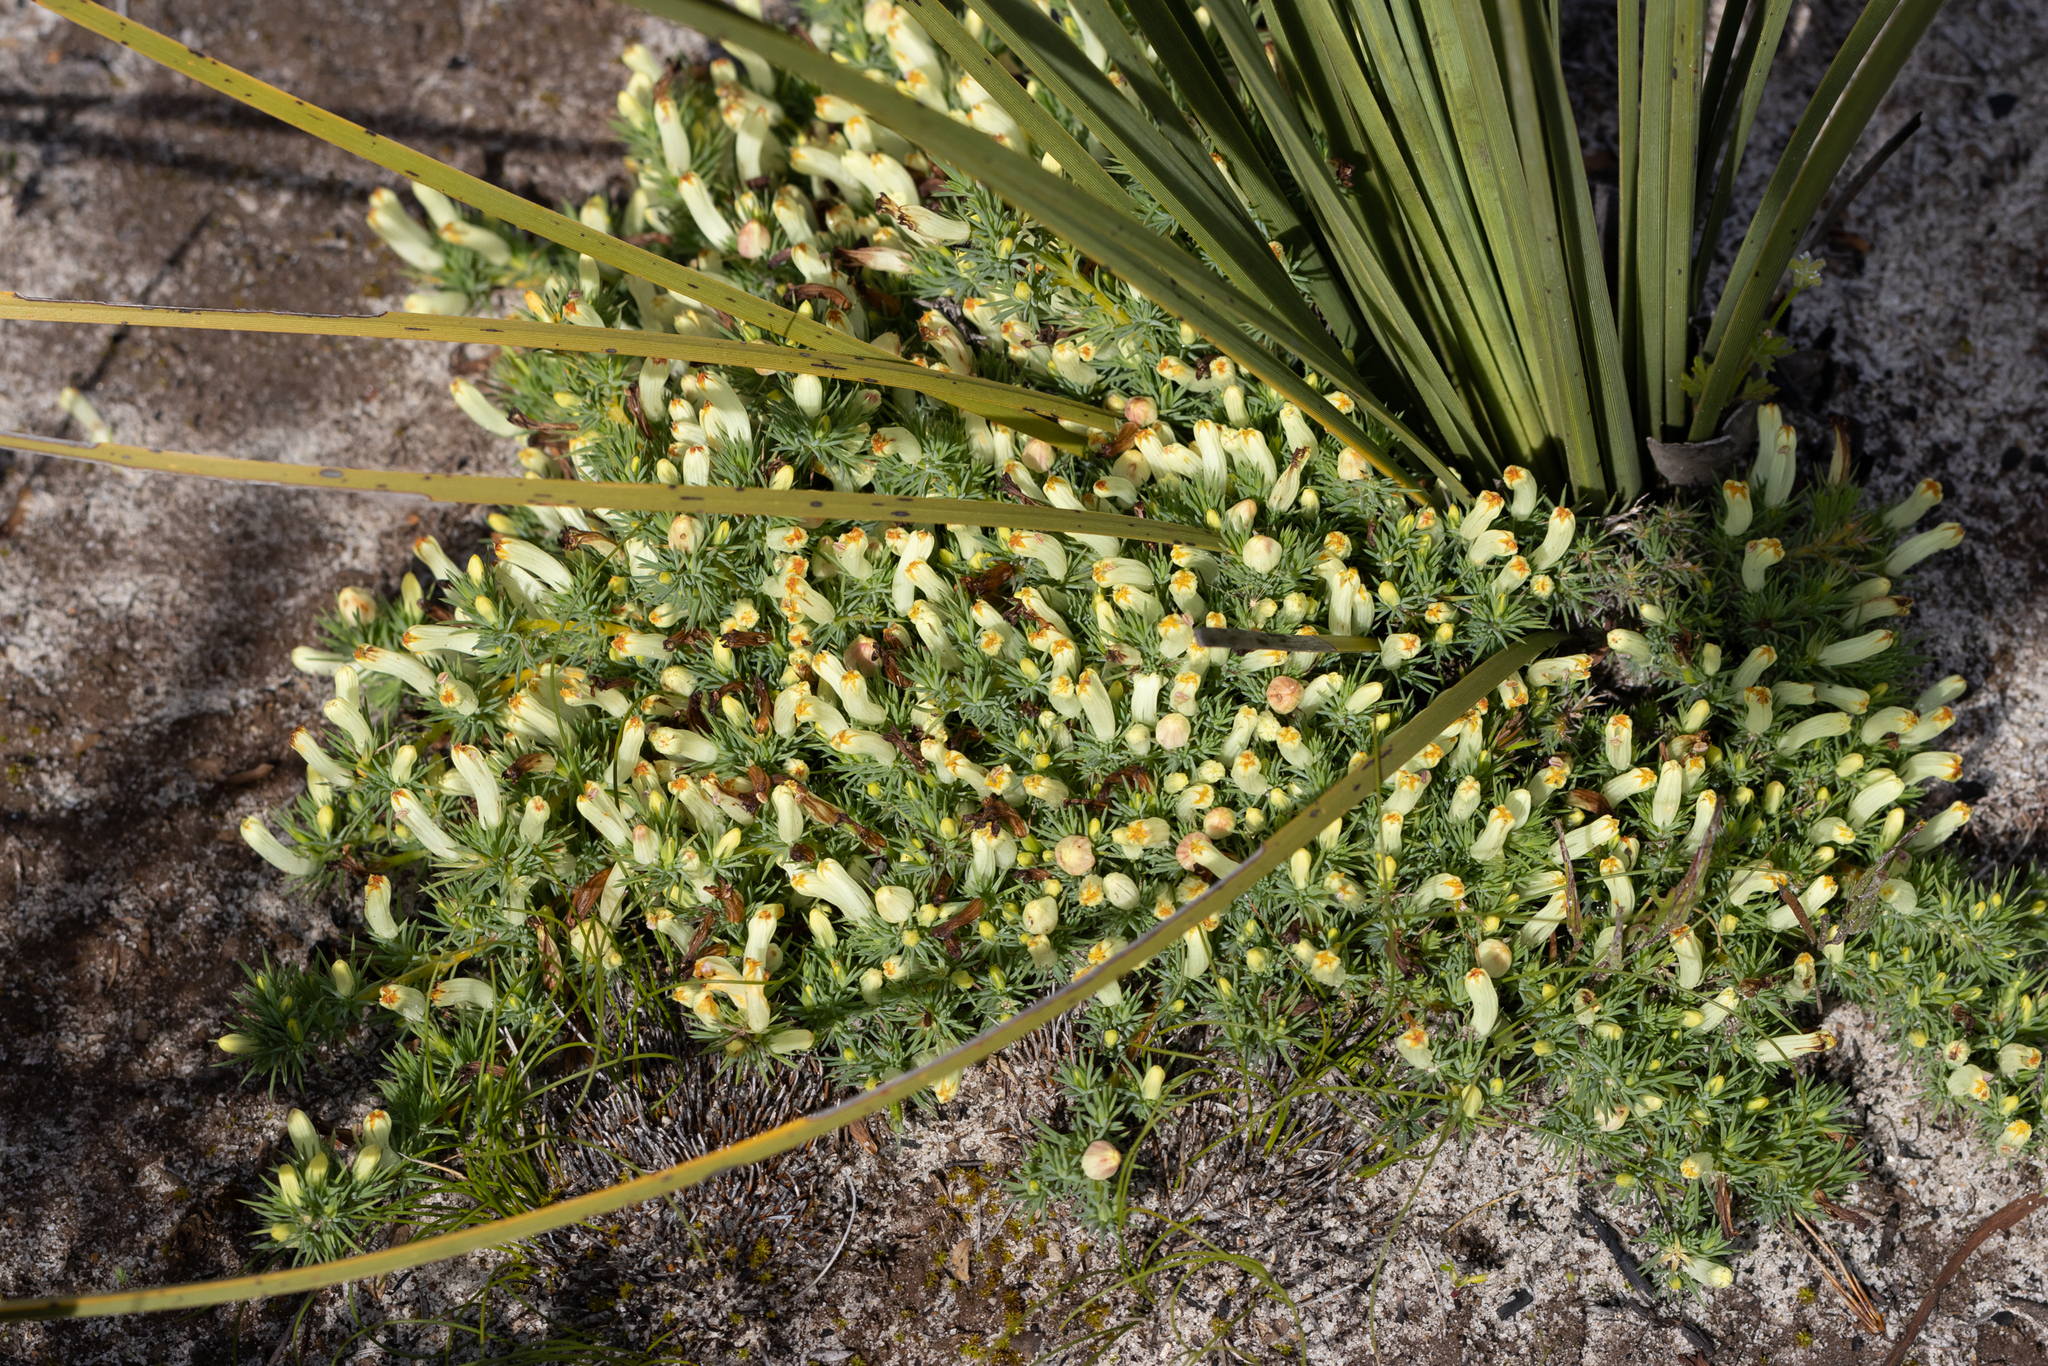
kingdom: Plantae
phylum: Tracheophyta
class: Magnoliopsida
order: Asterales
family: Goodeniaceae
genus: Lechenaultia
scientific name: Lechenaultia tubiflora
